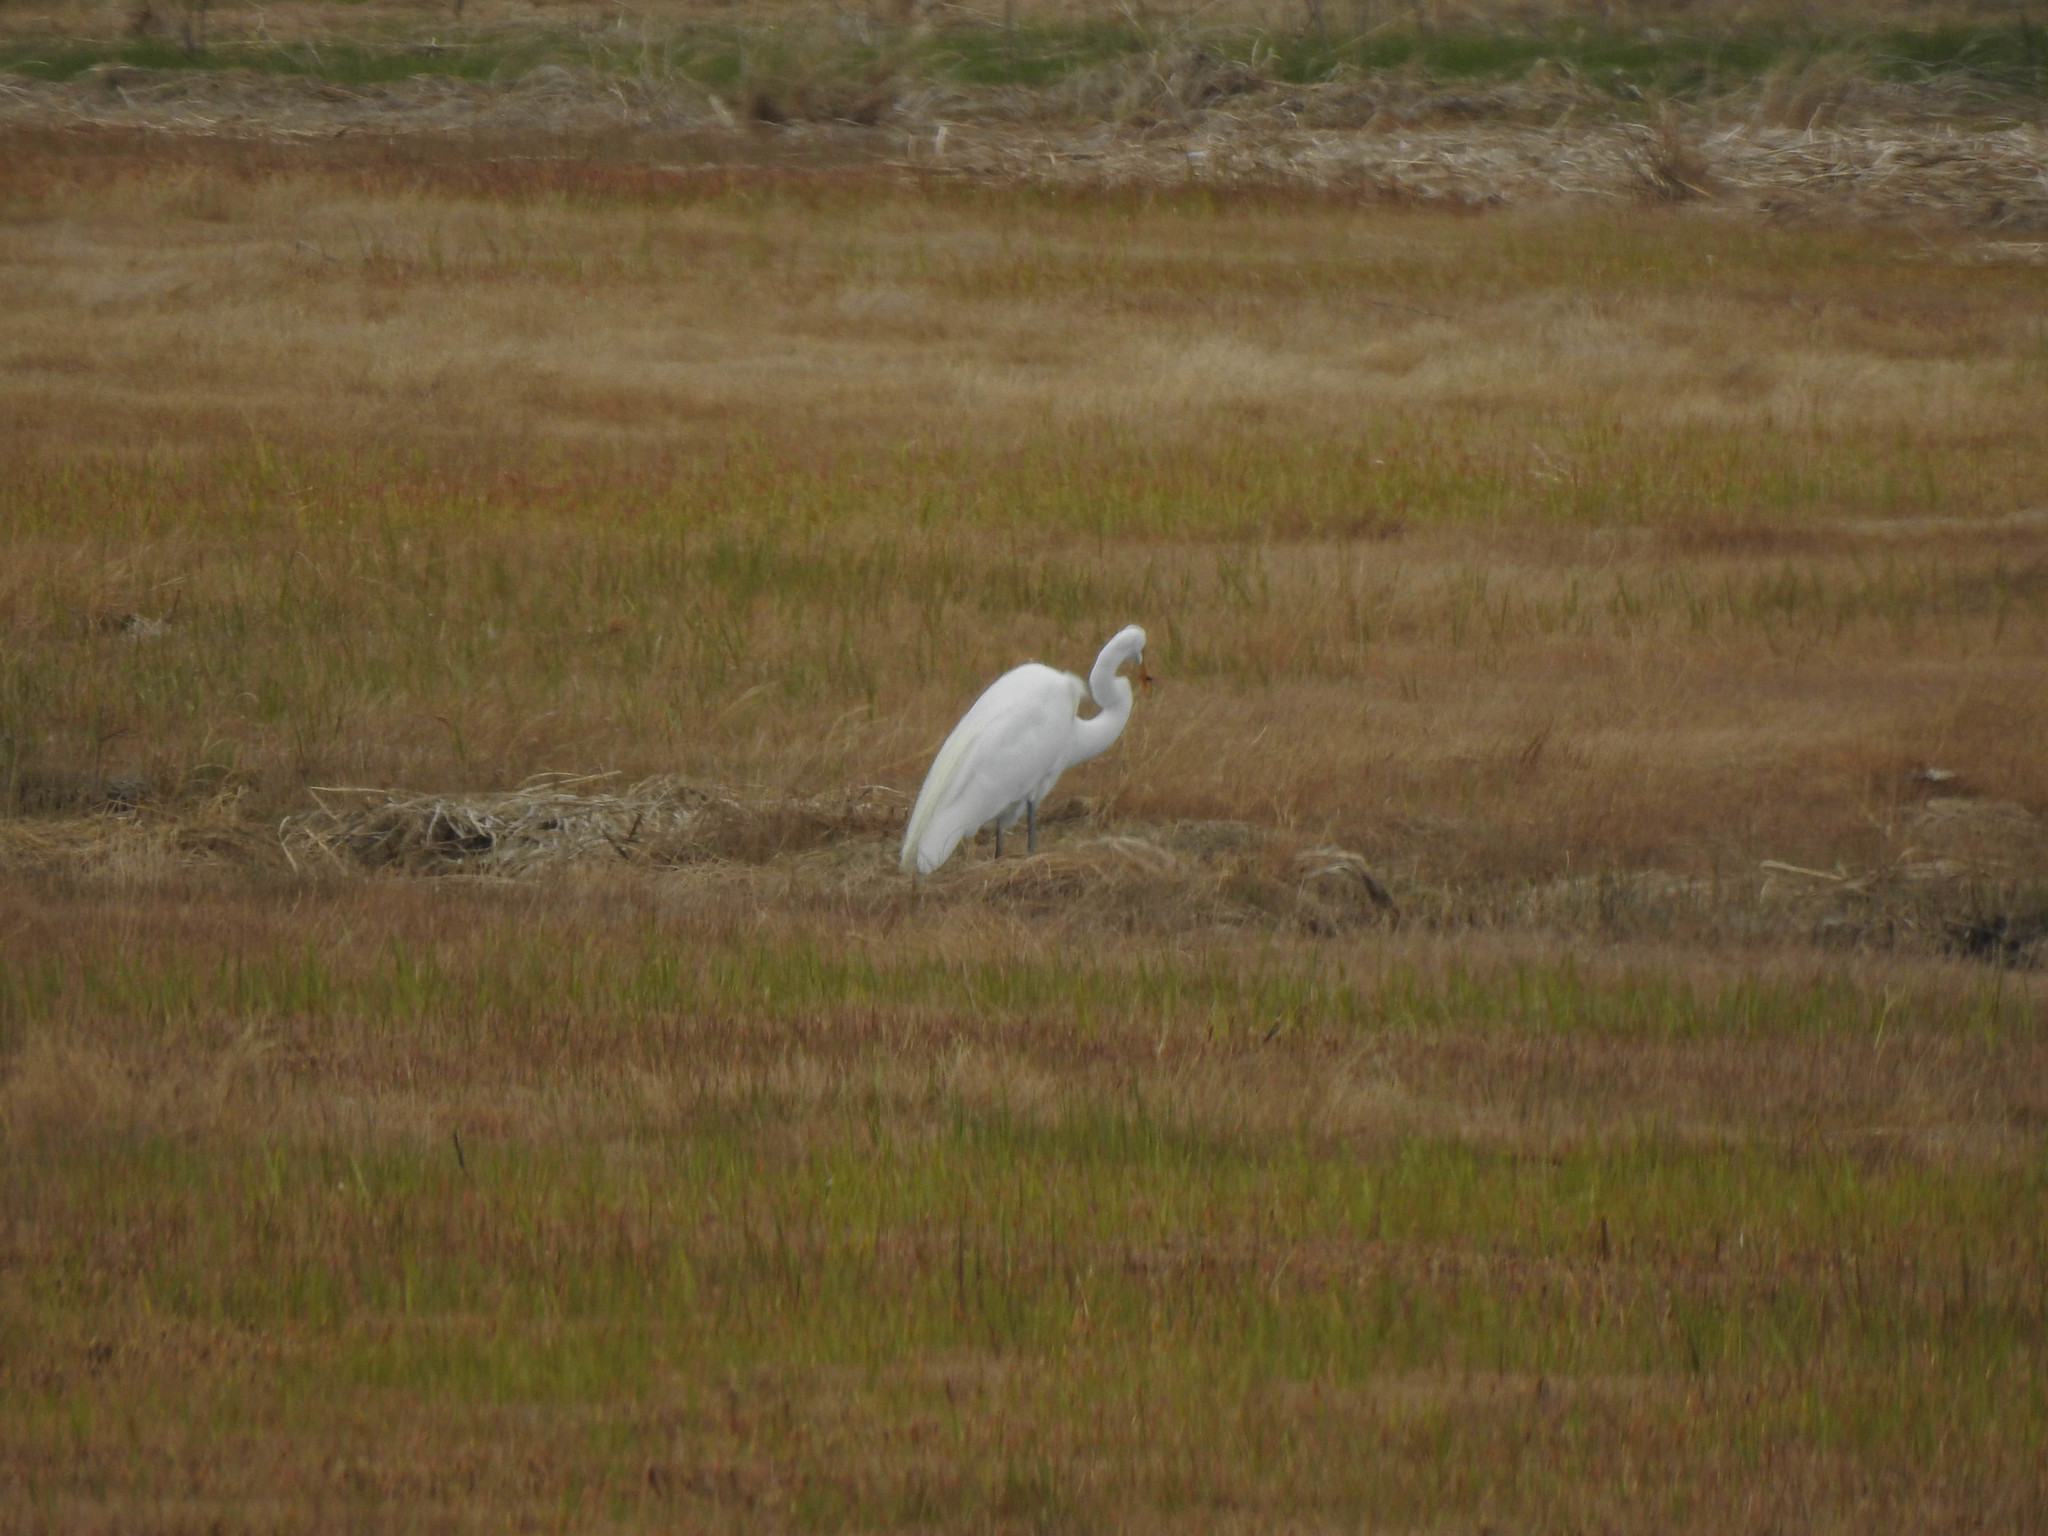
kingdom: Animalia
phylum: Chordata
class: Aves
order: Pelecaniformes
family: Ardeidae
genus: Ardea
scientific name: Ardea alba
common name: Great egret
